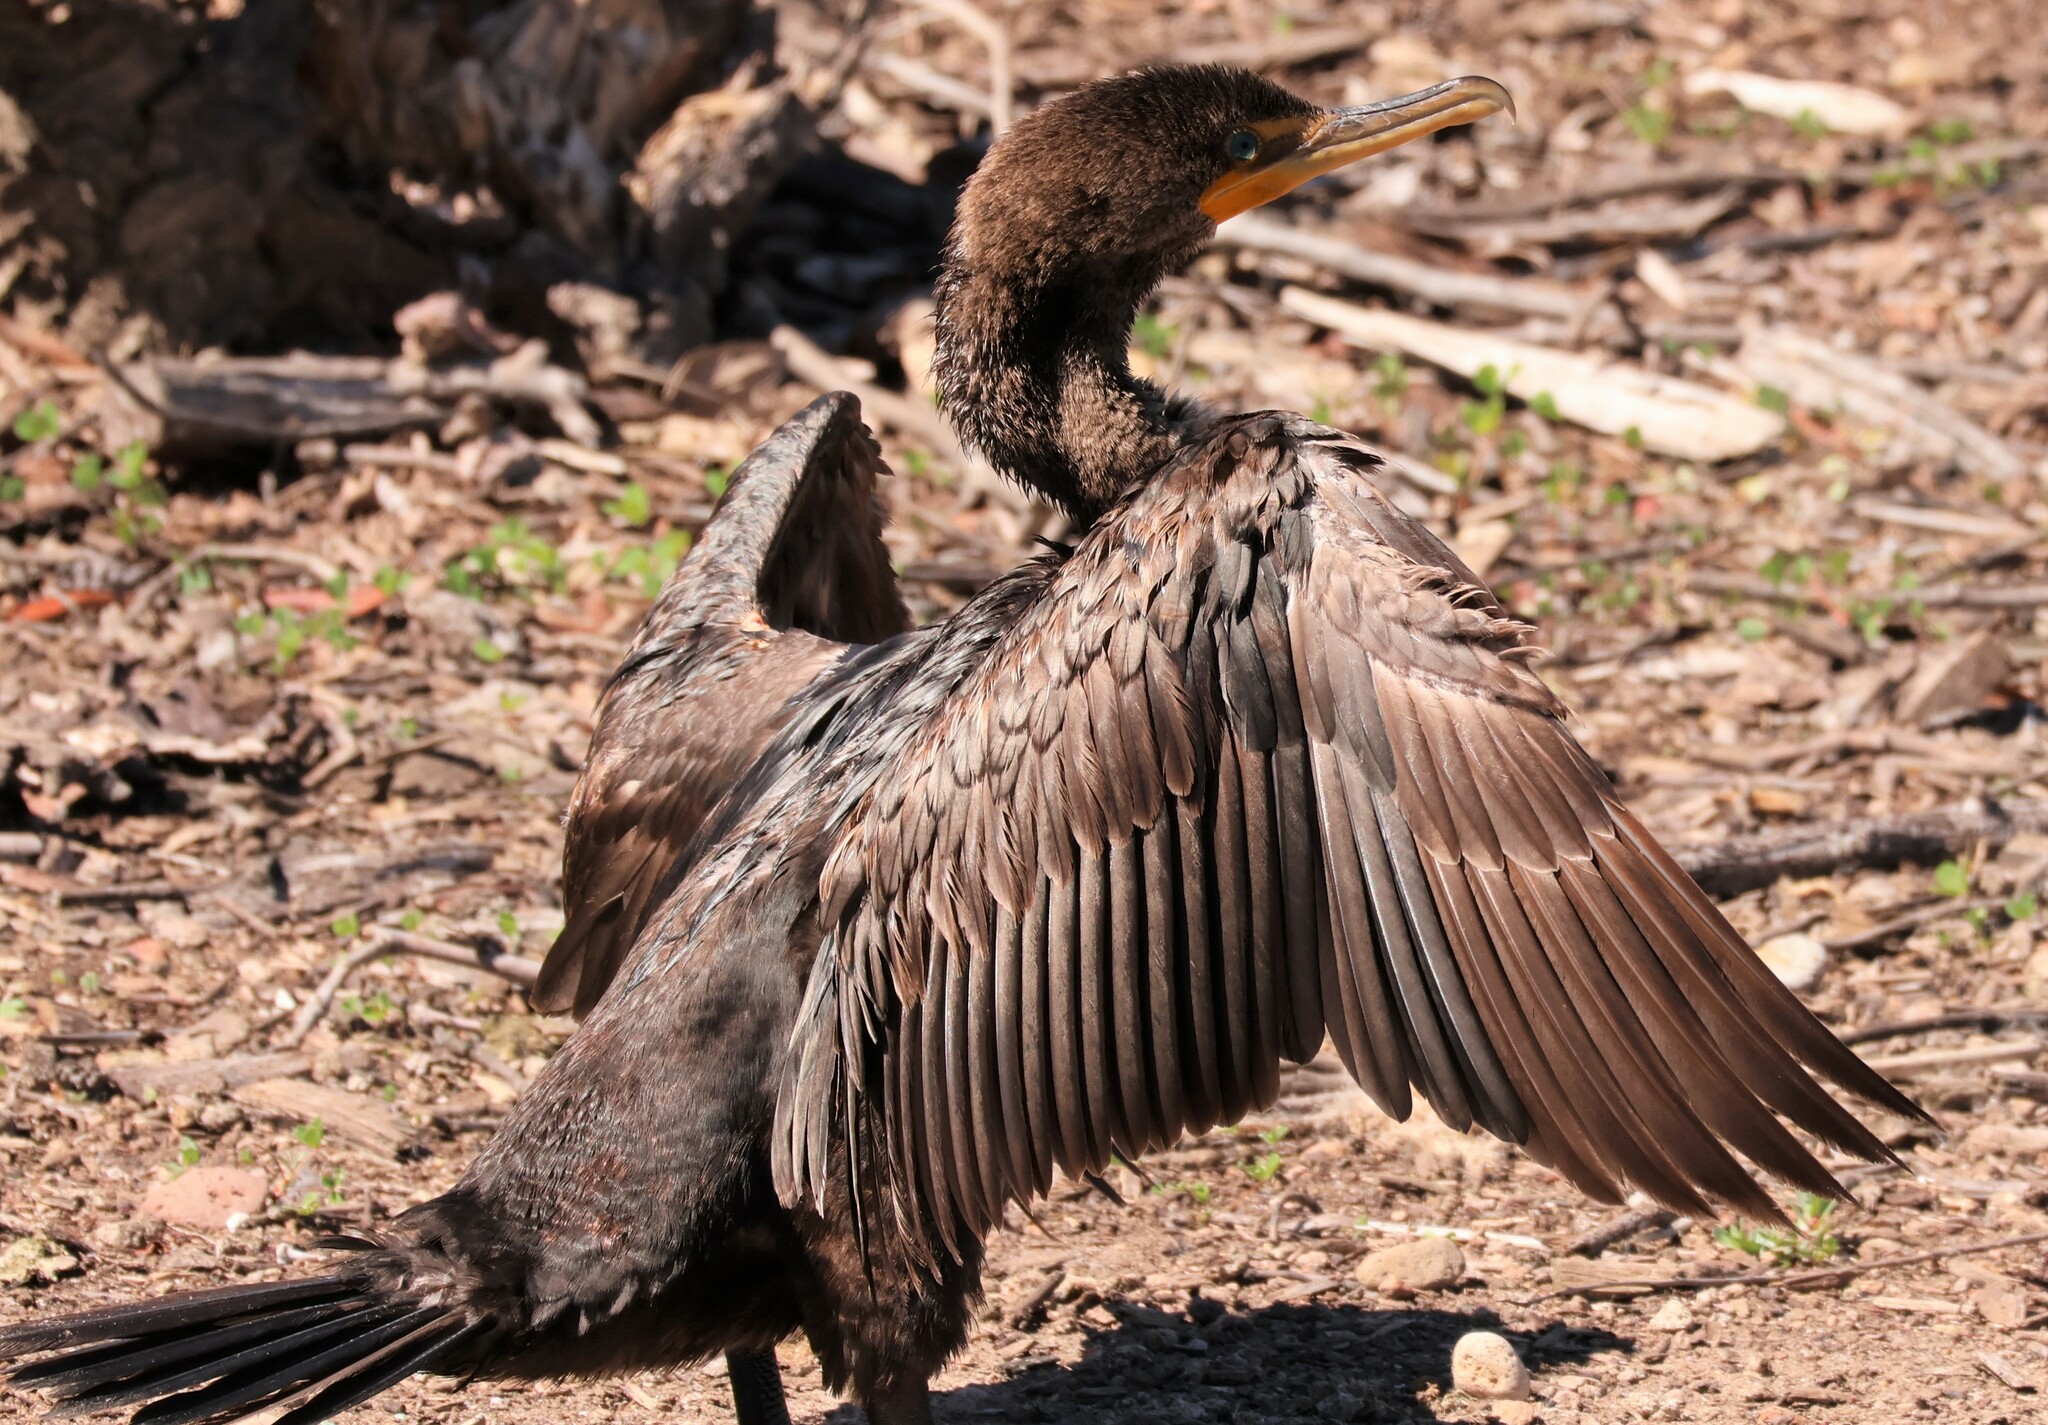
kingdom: Animalia
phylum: Chordata
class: Aves
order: Suliformes
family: Phalacrocoracidae
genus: Phalacrocorax
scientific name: Phalacrocorax auritus
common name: Double-crested cormorant
